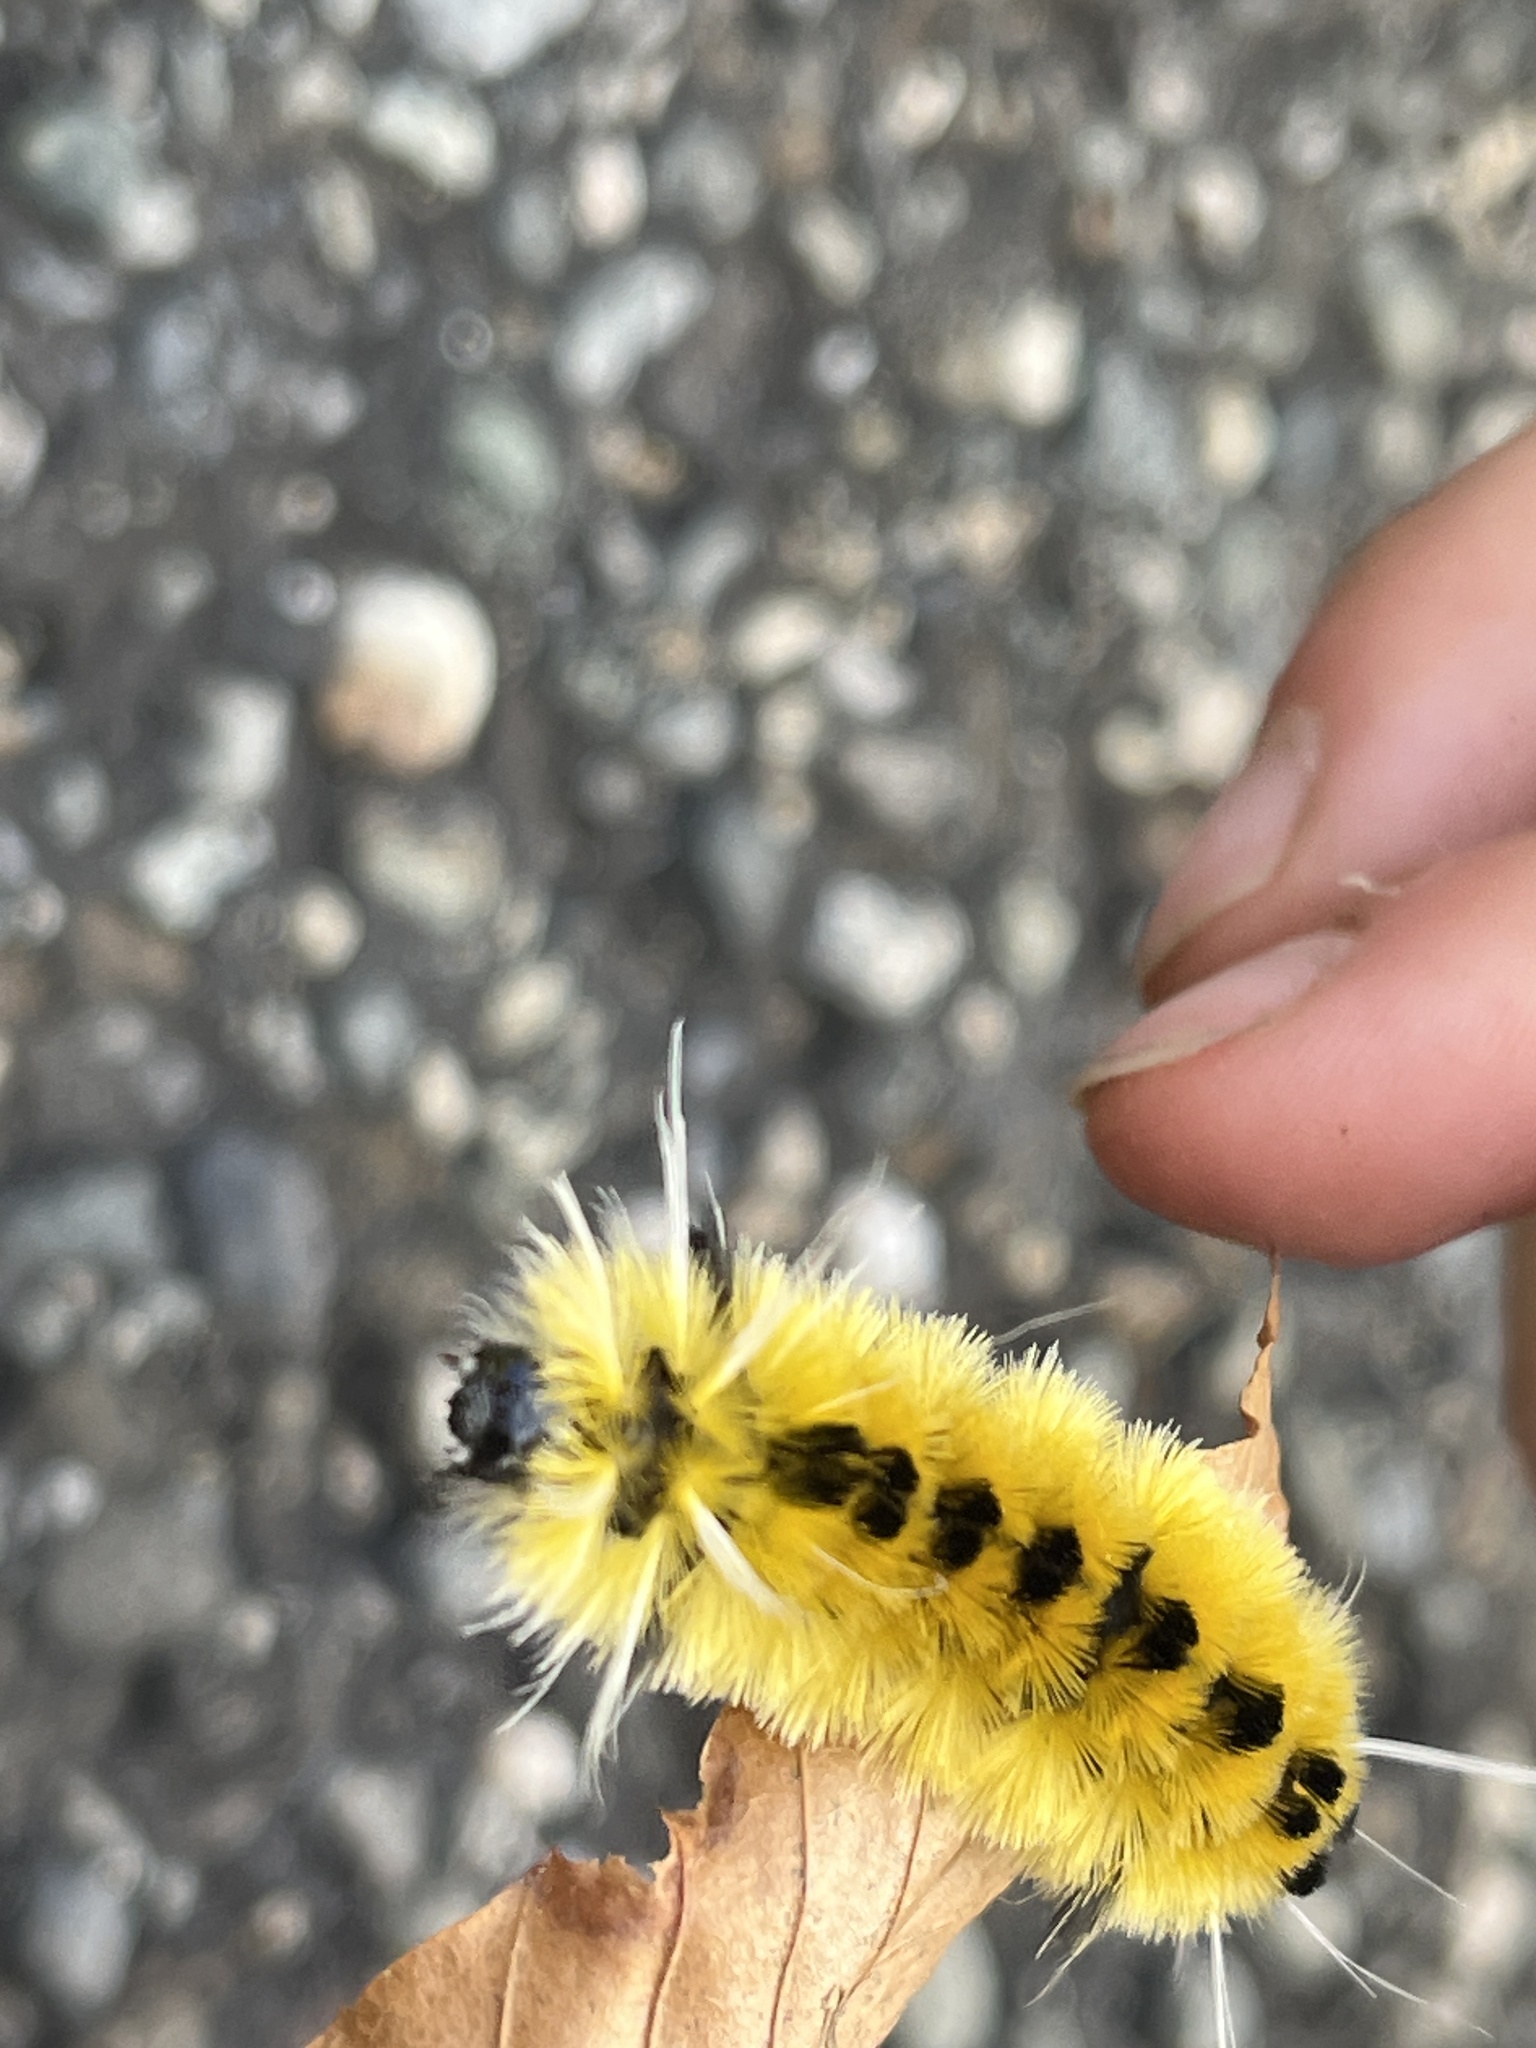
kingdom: Animalia
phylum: Arthropoda
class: Insecta
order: Lepidoptera
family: Erebidae
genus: Lophocampa
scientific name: Lophocampa maculata
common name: Spotted tussock moth
